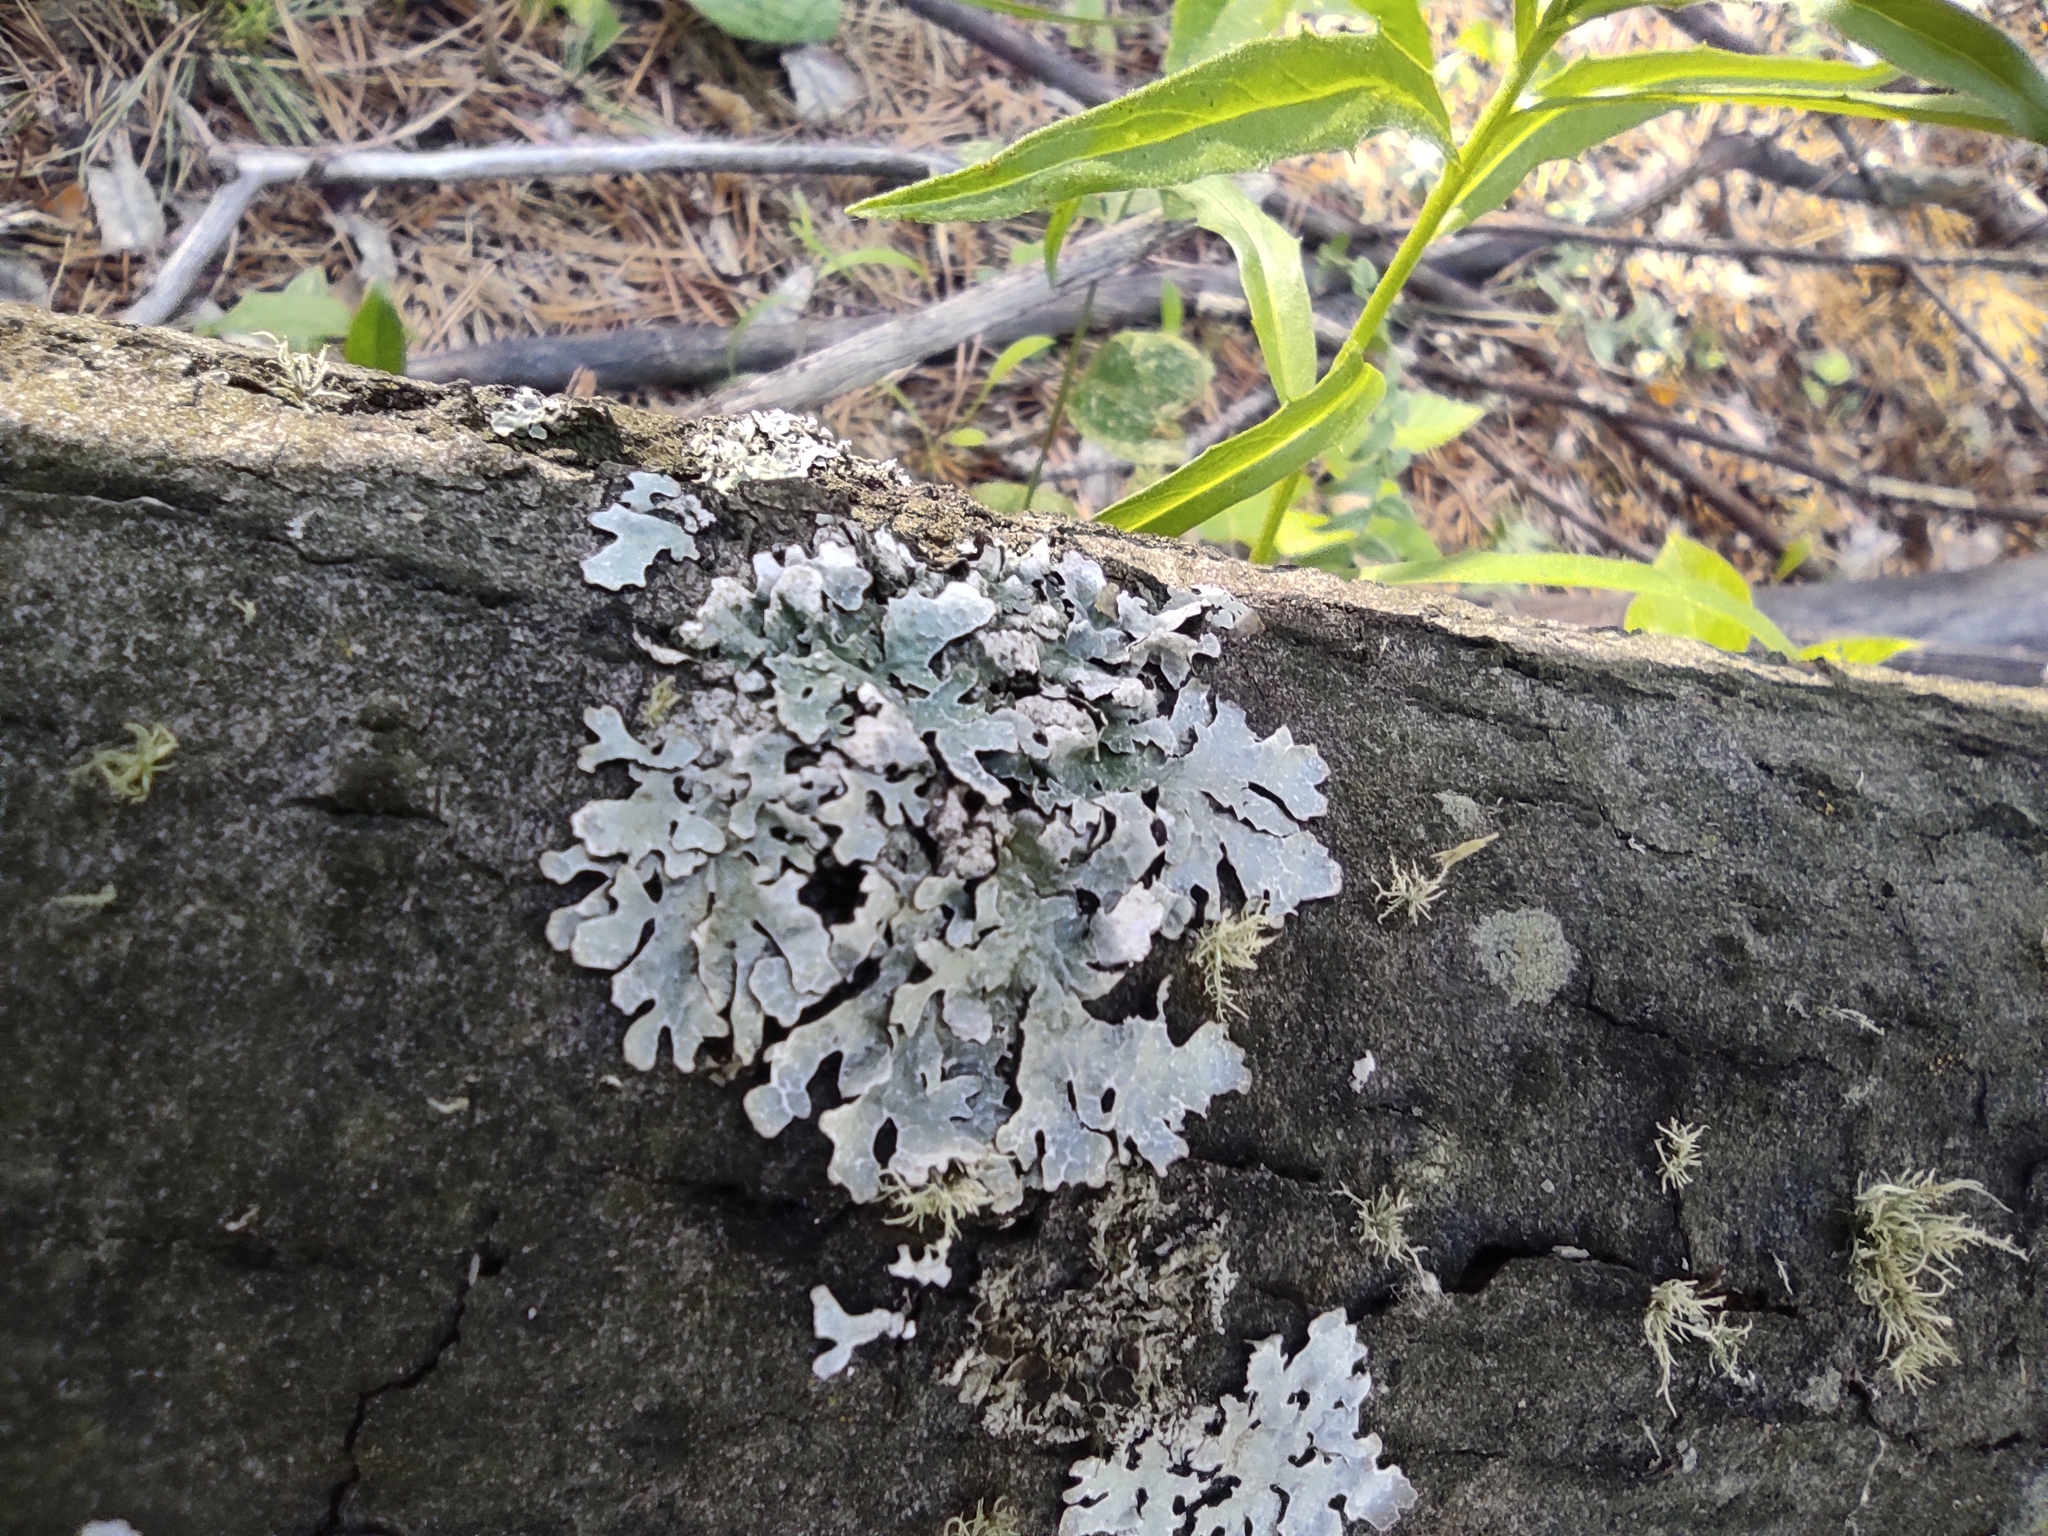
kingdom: Fungi
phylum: Ascomycota
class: Lecanoromycetes
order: Lecanorales
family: Parmeliaceae
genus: Parmelia
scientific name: Parmelia sulcata
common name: Netted shield lichen
